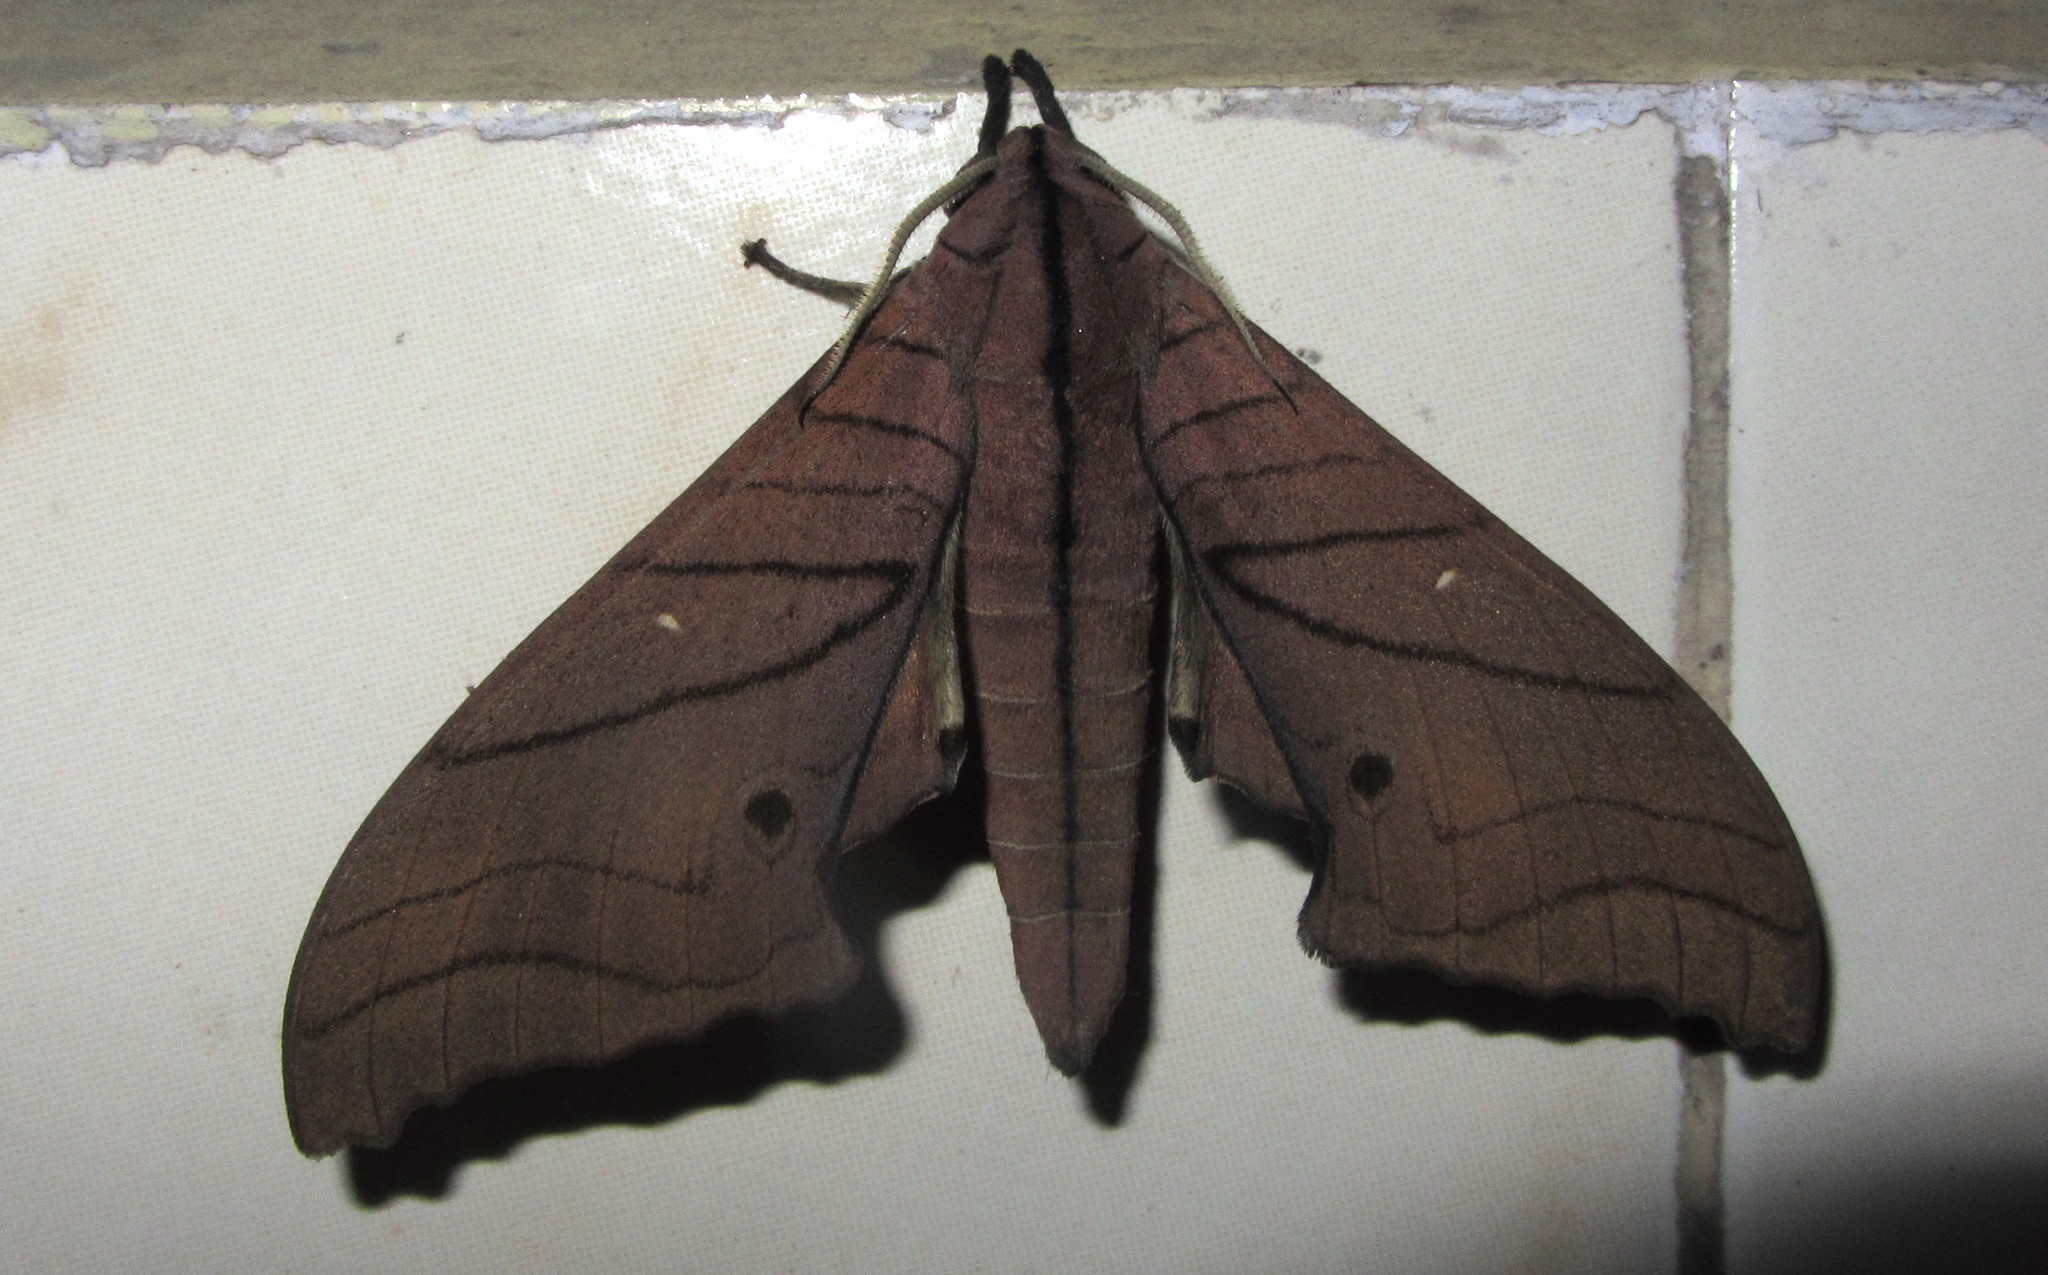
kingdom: Animalia
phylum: Arthropoda
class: Insecta
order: Lepidoptera
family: Sphingidae
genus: Marumba
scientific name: Marumba cristata
